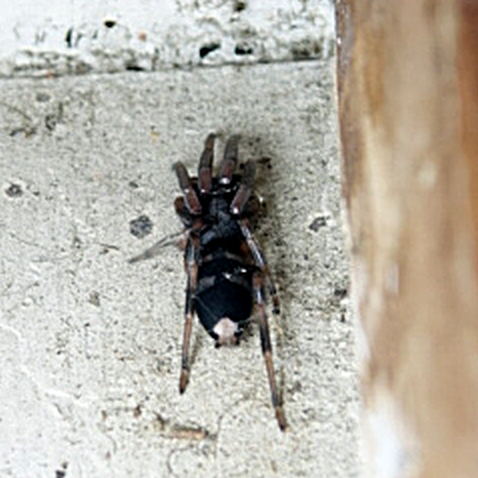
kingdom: Animalia
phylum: Arthropoda
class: Arachnida
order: Araneae
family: Lamponidae
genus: Lampona
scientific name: Lampona cylindrata
